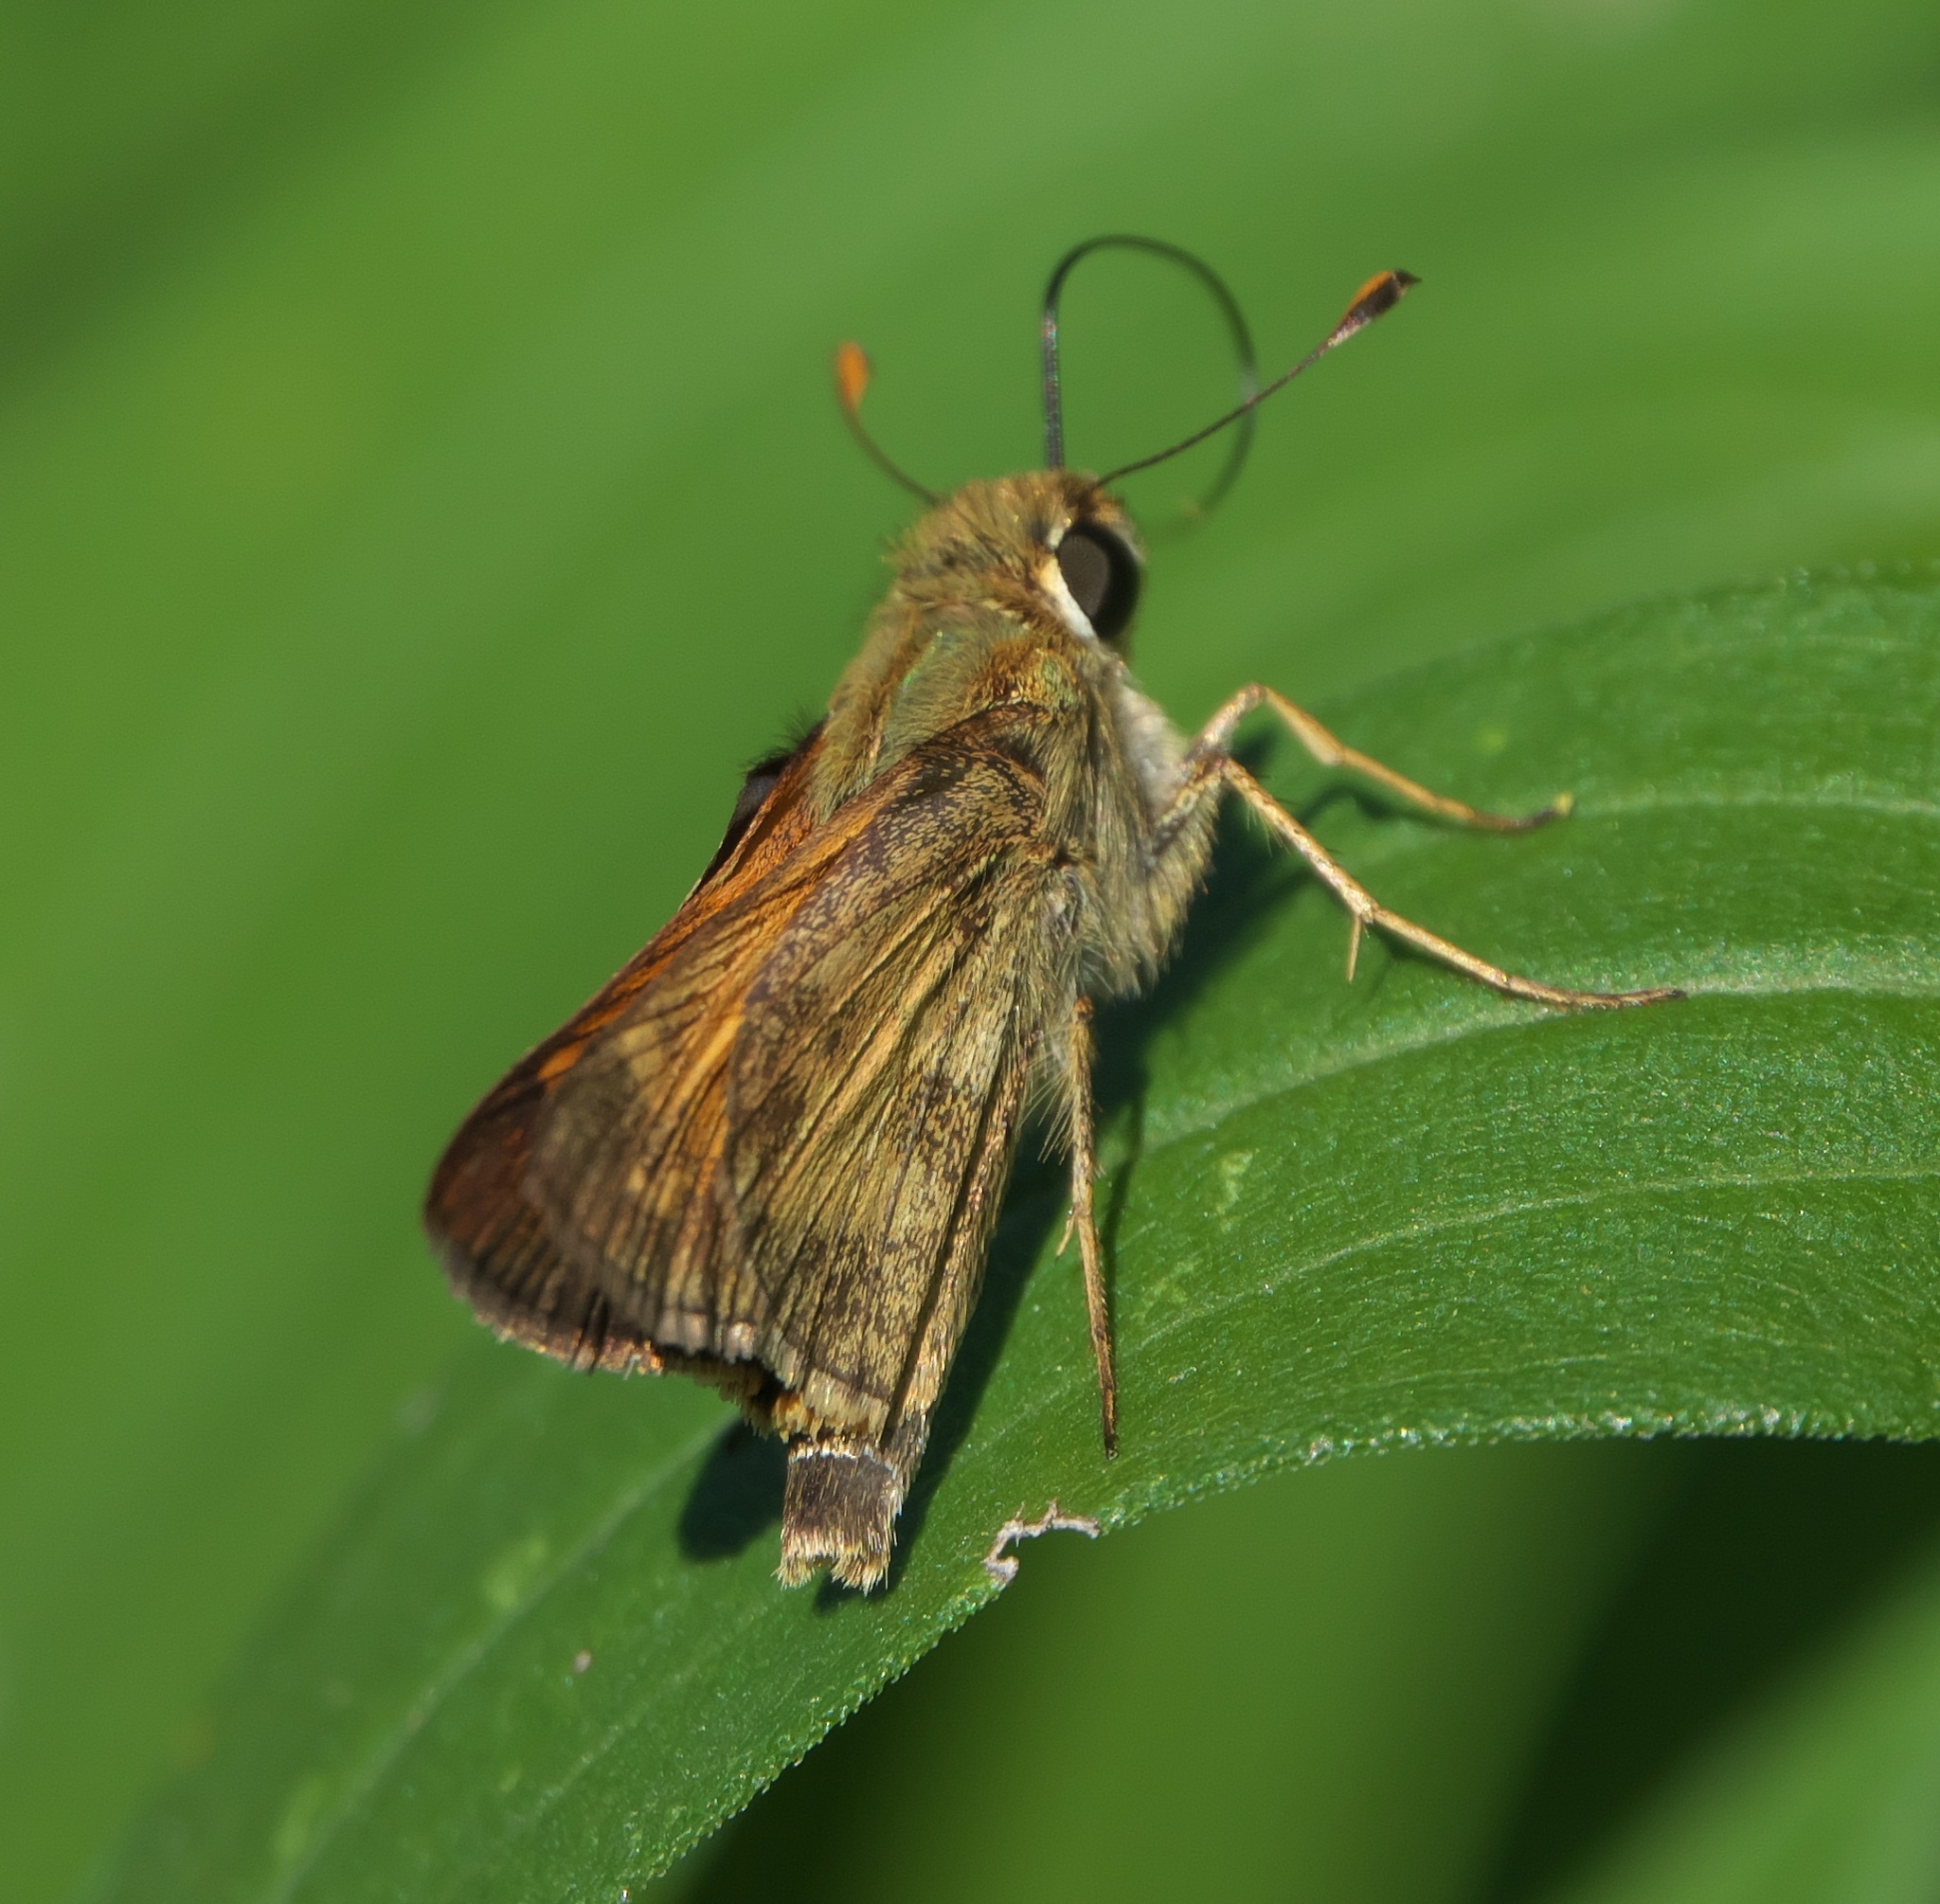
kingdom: Animalia
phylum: Arthropoda
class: Insecta
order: Lepidoptera
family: Hesperiidae
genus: Atalopedes
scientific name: Atalopedes
